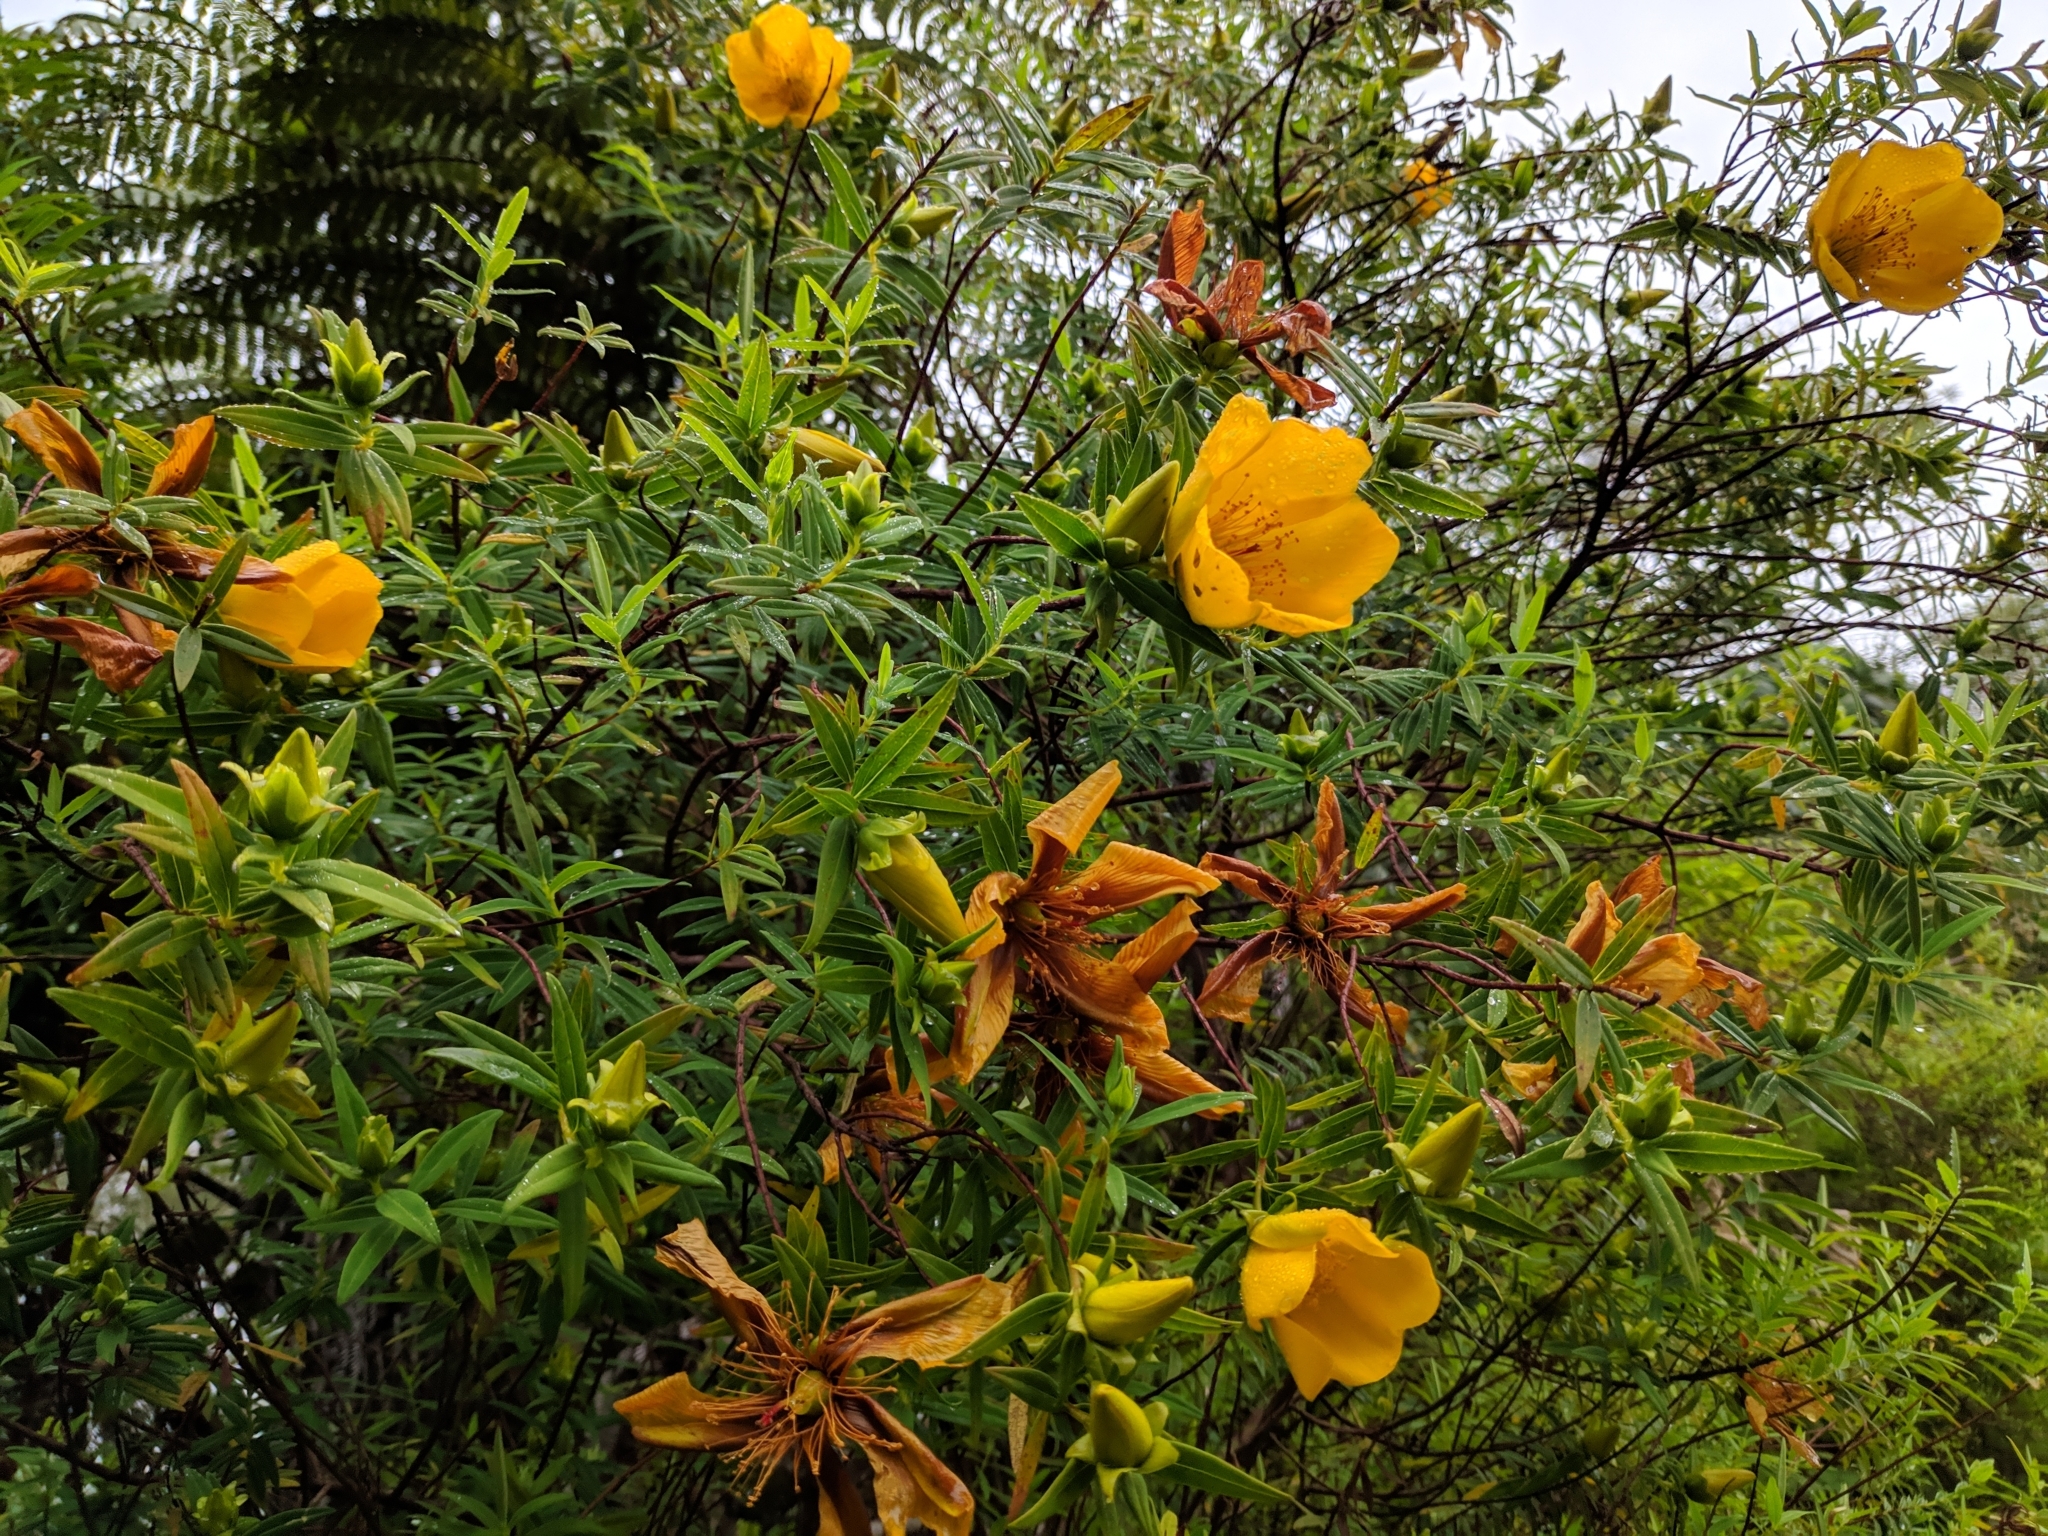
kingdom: Plantae
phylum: Tracheophyta
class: Magnoliopsida
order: Malpighiales
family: Hypericaceae
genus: Hypericum
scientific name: Hypericum lanceolatum
